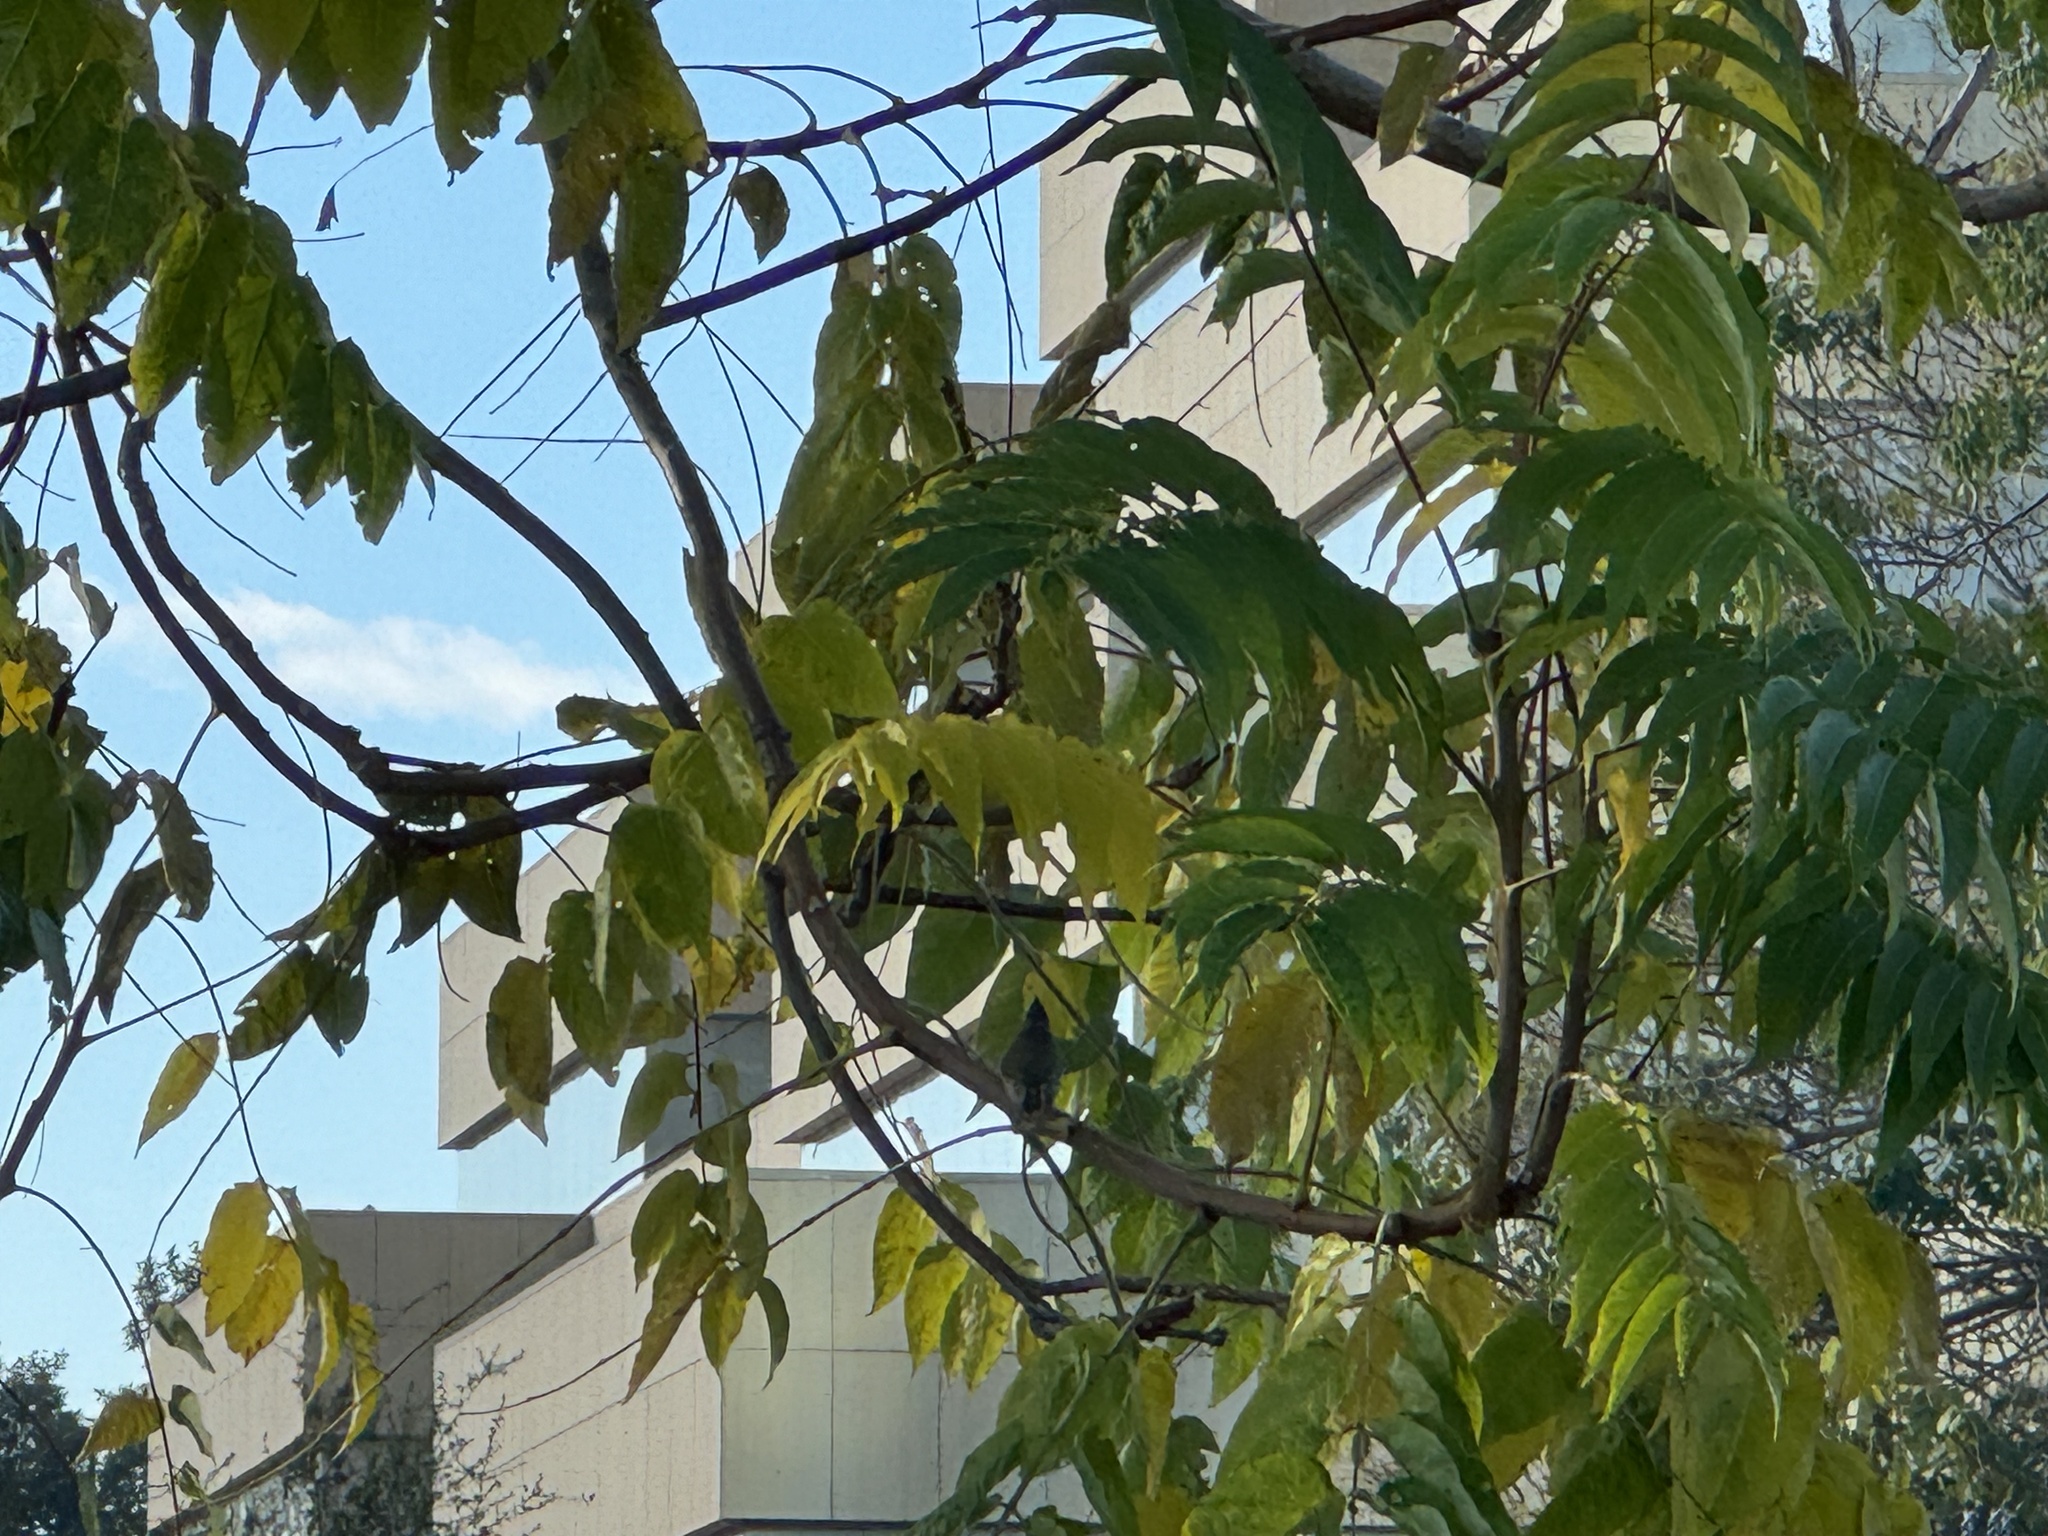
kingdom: Animalia
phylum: Chordata
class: Aves
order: Passeriformes
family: Paridae
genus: Baeolophus
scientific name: Baeolophus inornatus
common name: Oak titmouse
